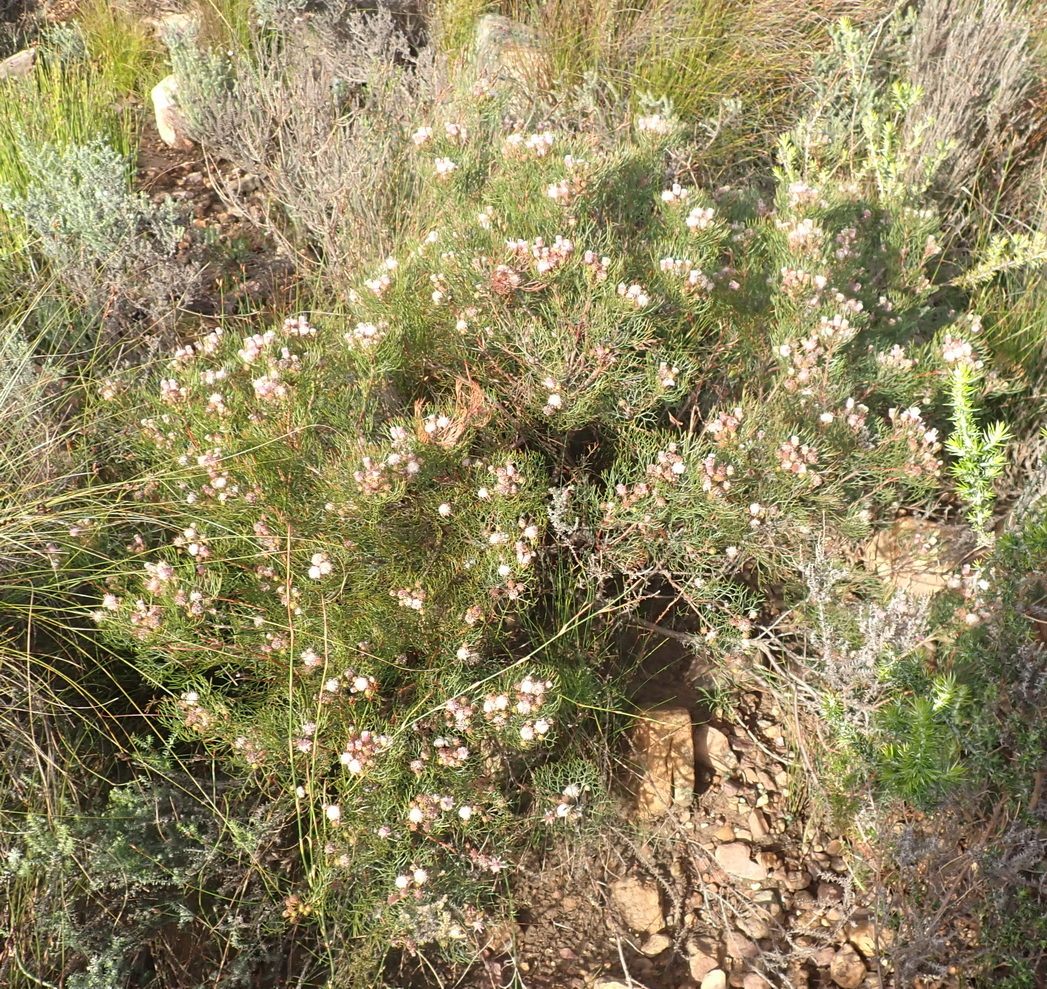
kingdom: Plantae
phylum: Tracheophyta
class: Magnoliopsida
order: Proteales
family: Proteaceae
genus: Serruria
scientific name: Serruria fasciflora
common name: Common pin spiderhead
